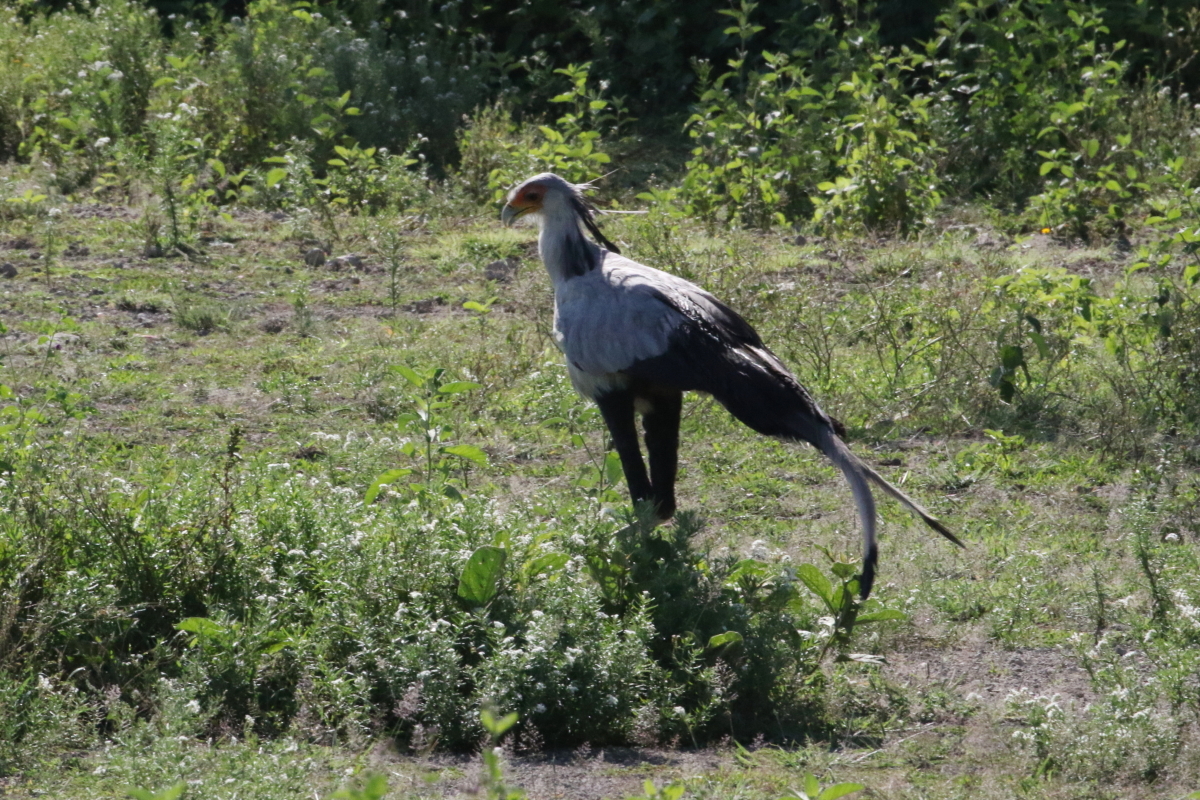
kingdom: Animalia
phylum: Chordata
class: Aves
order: Accipitriformes
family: Sagittariidae
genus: Sagittarius
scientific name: Sagittarius serpentarius
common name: Secretarybird
